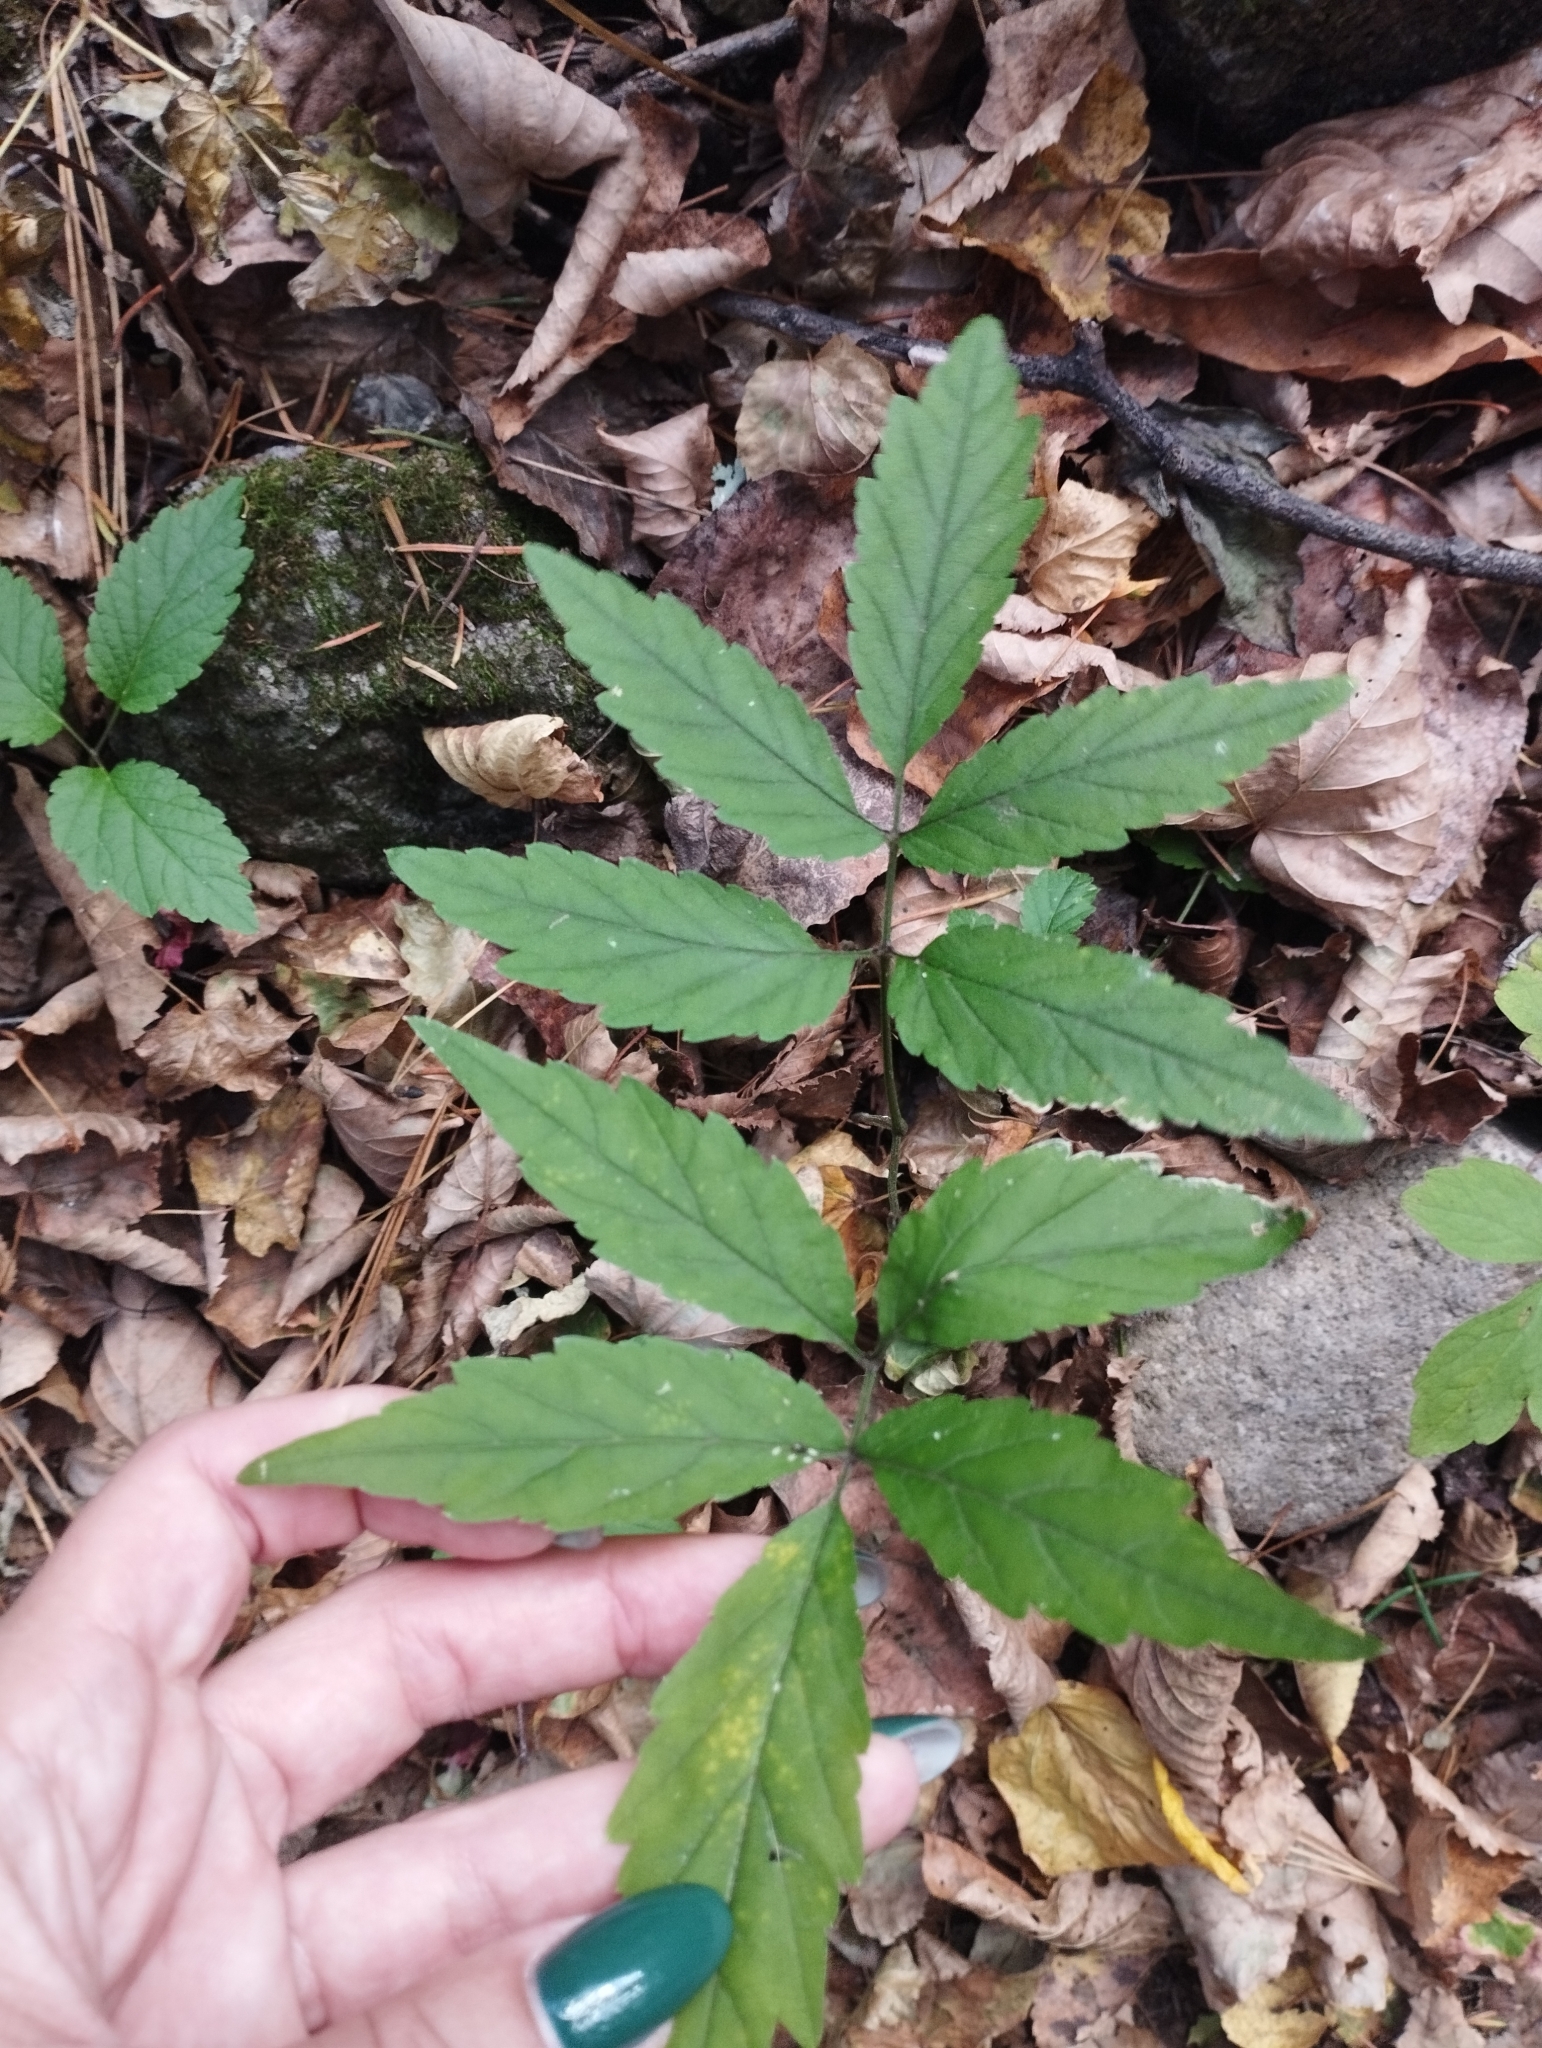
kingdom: Plantae
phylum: Tracheophyta
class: Magnoliopsida
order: Brassicales
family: Brassicaceae
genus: Cardamine
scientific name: Cardamine leucantha
